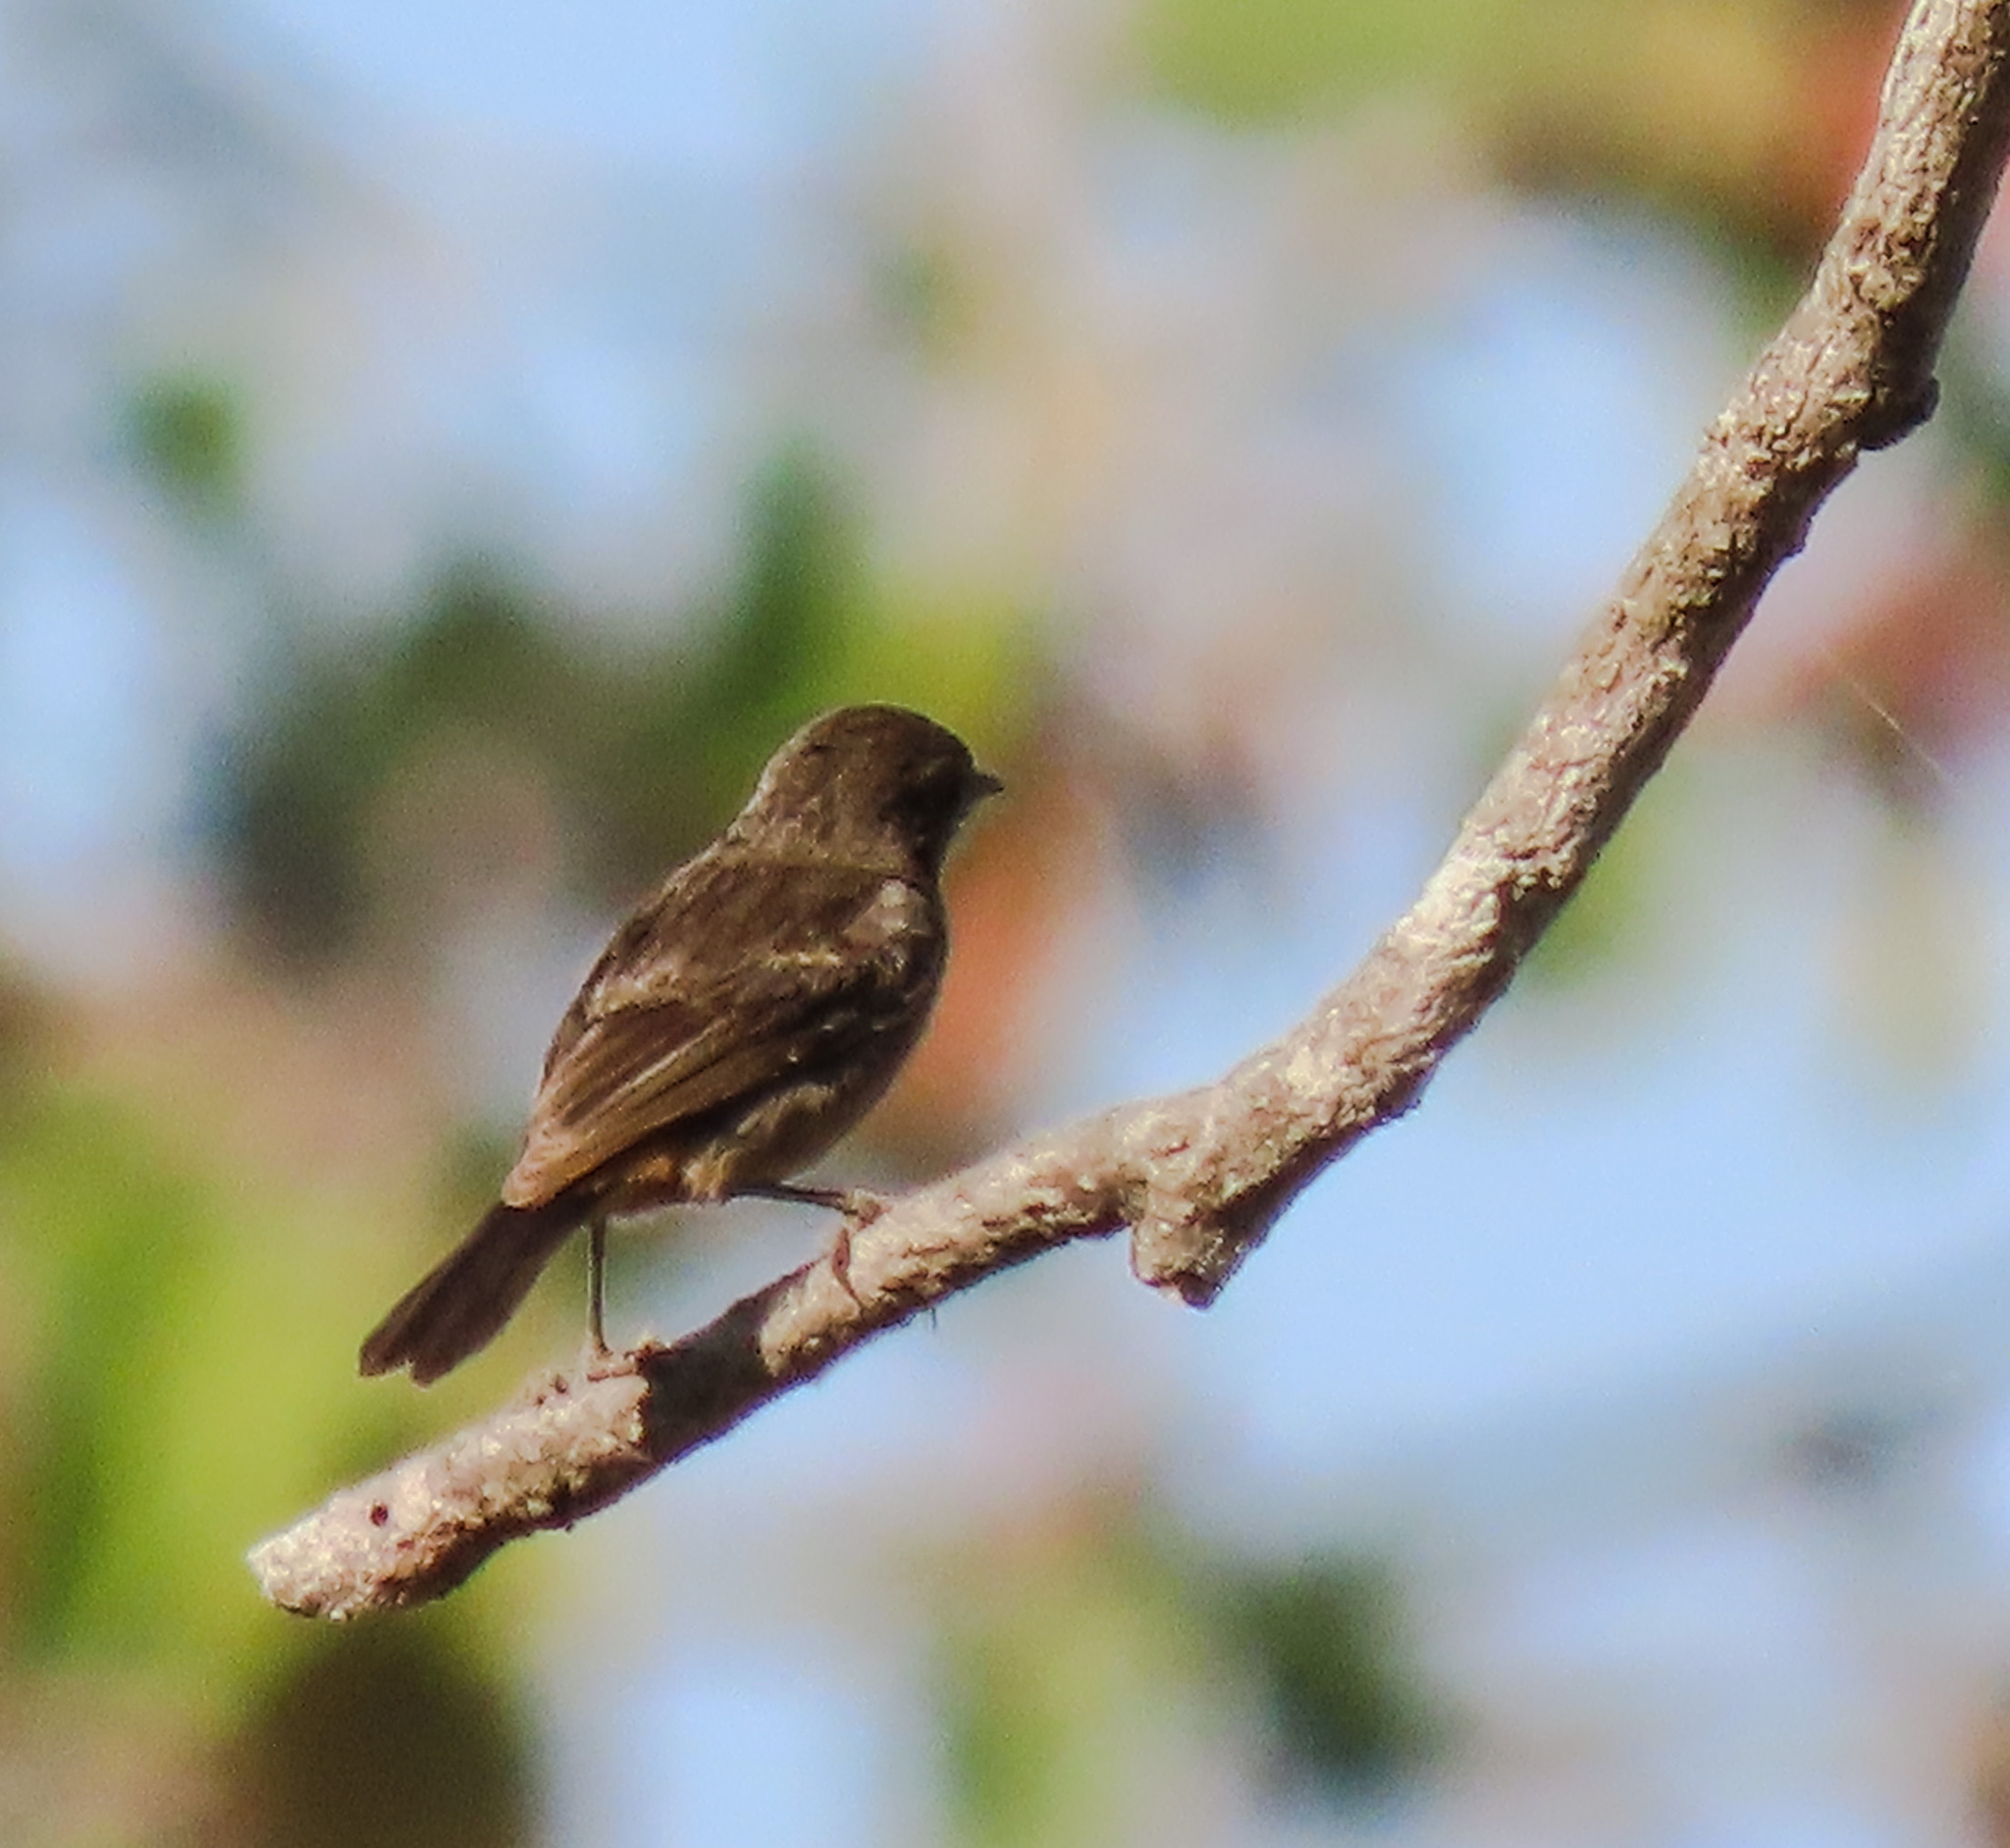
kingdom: Animalia
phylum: Chordata
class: Aves
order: Passeriformes
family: Muscicapidae
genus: Saxicola
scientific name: Saxicola caprata
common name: Pied bush chat
